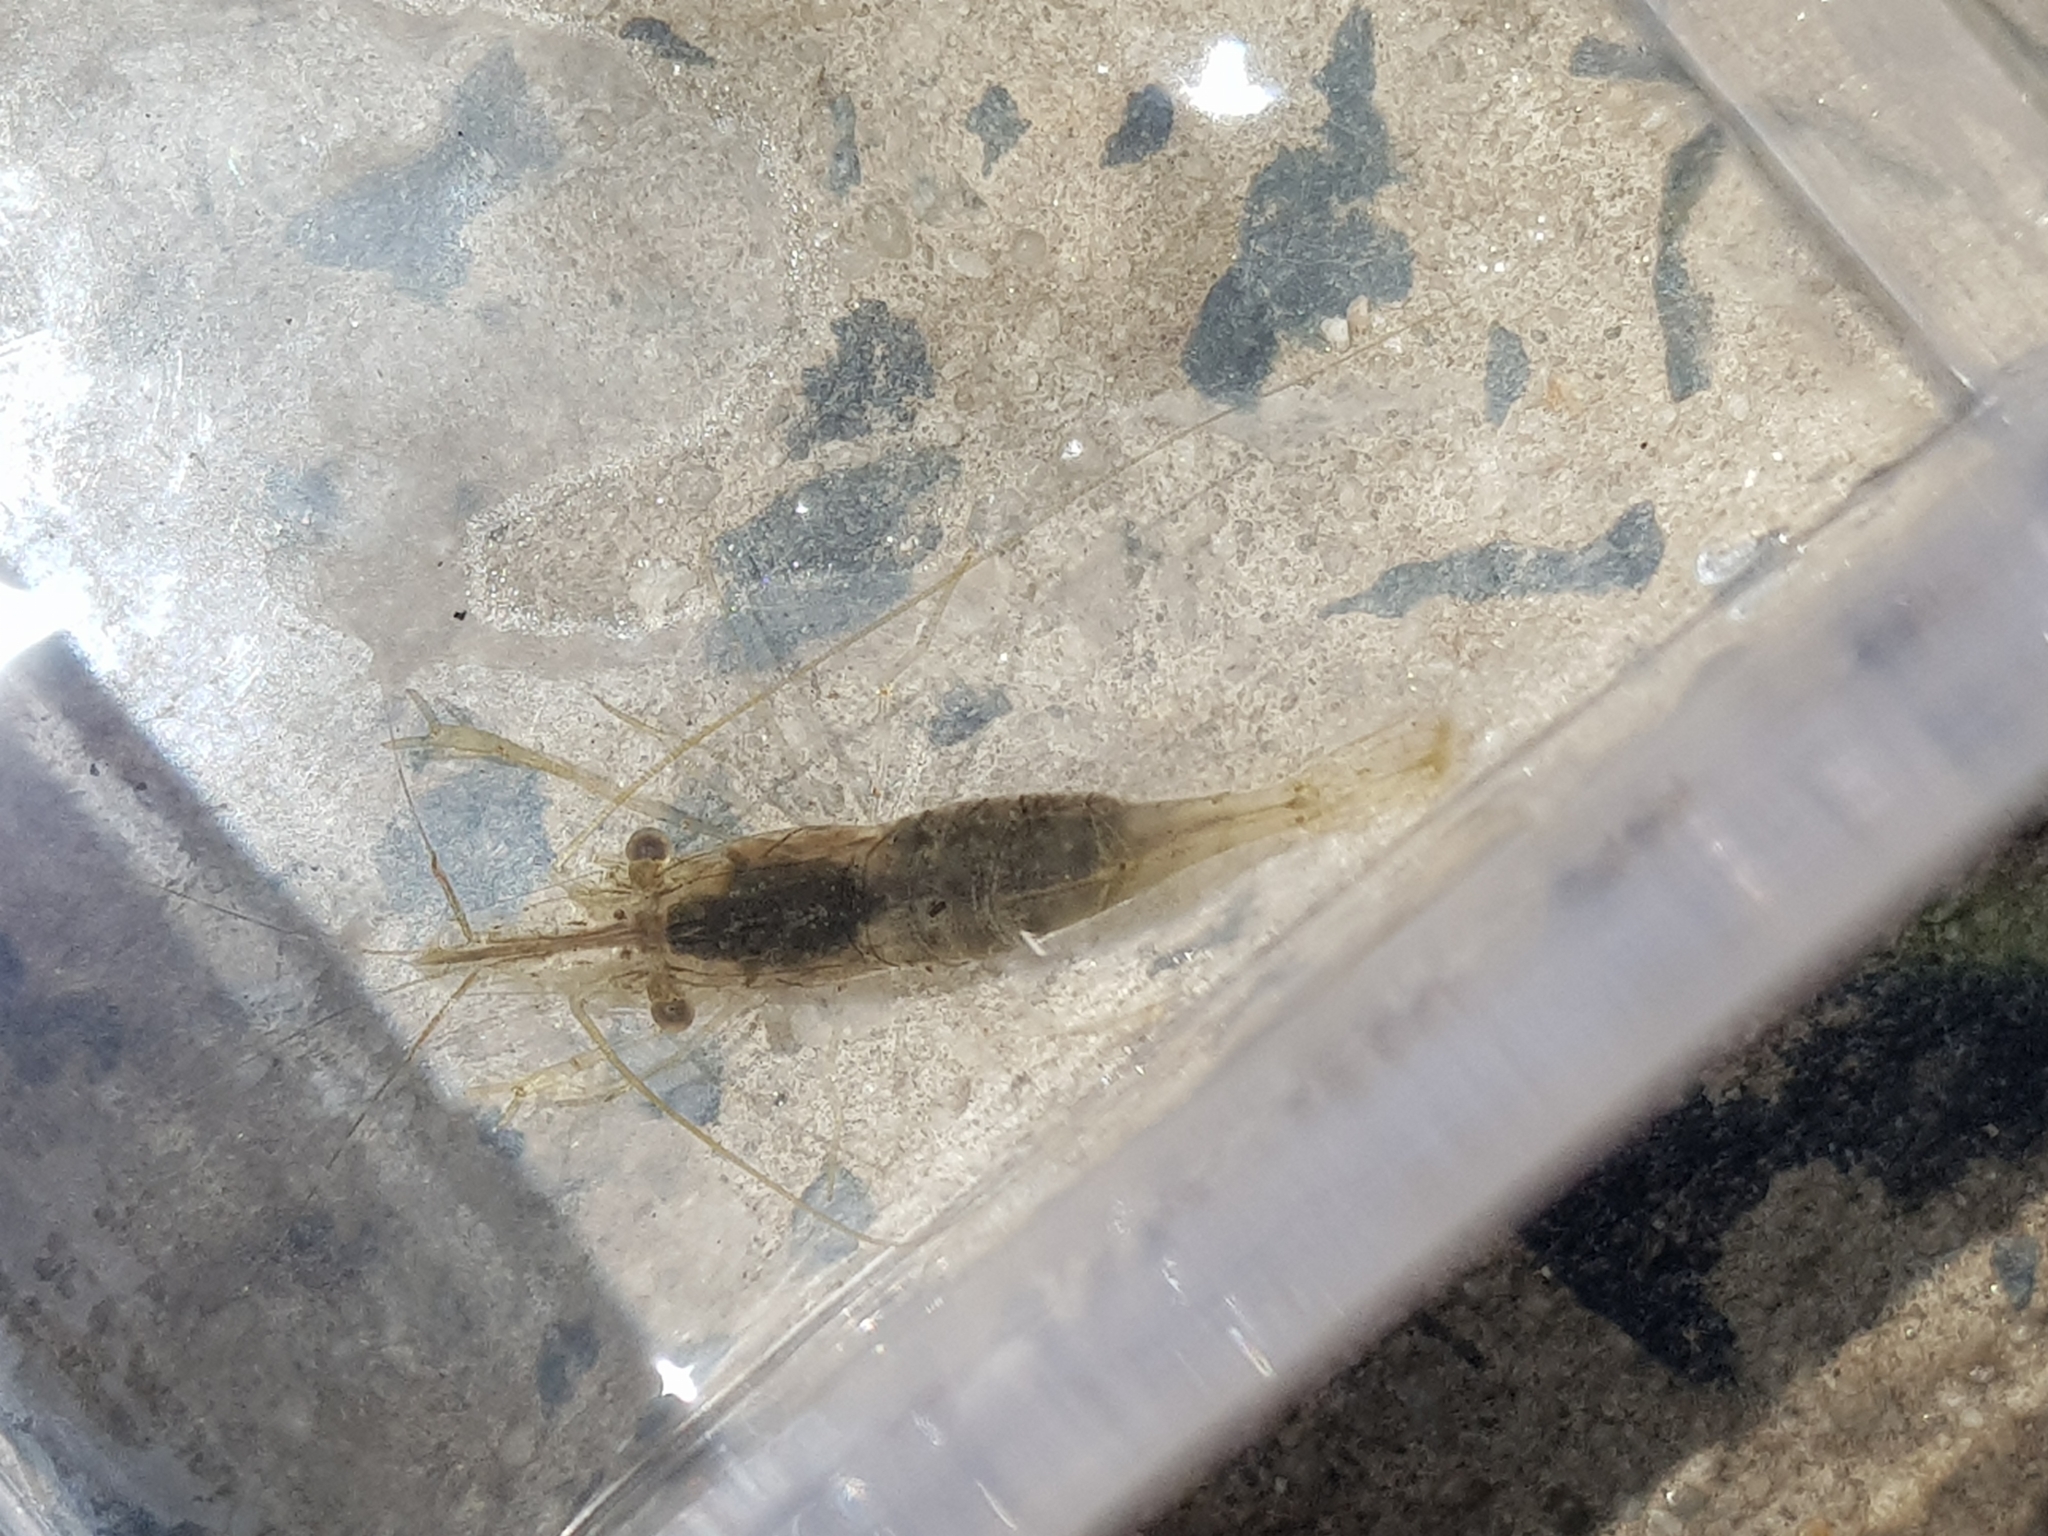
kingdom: Animalia
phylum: Arthropoda
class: Malacostraca
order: Decapoda
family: Palaemonidae
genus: Palaemon
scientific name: Palaemon intermedius
